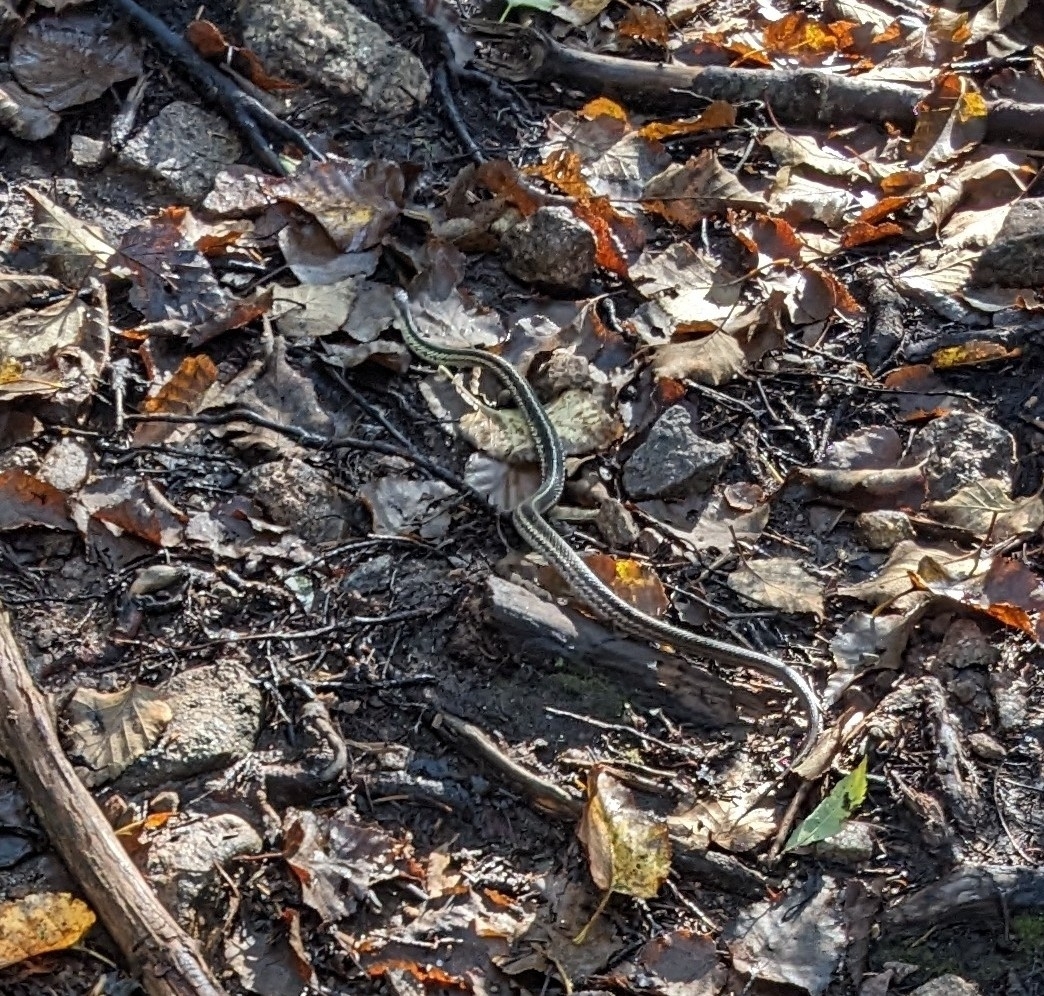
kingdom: Animalia
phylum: Chordata
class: Squamata
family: Colubridae
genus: Thamnophis
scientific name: Thamnophis sirtalis
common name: Common garter snake
